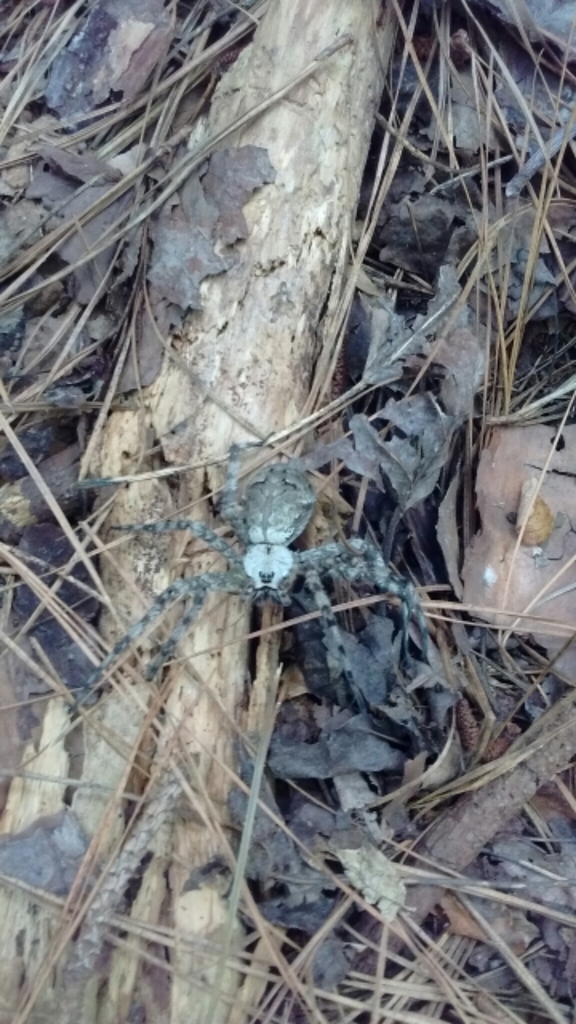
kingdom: Animalia
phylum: Arthropoda
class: Arachnida
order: Araneae
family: Pisauridae
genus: Dolomedes
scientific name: Dolomedes albineus
